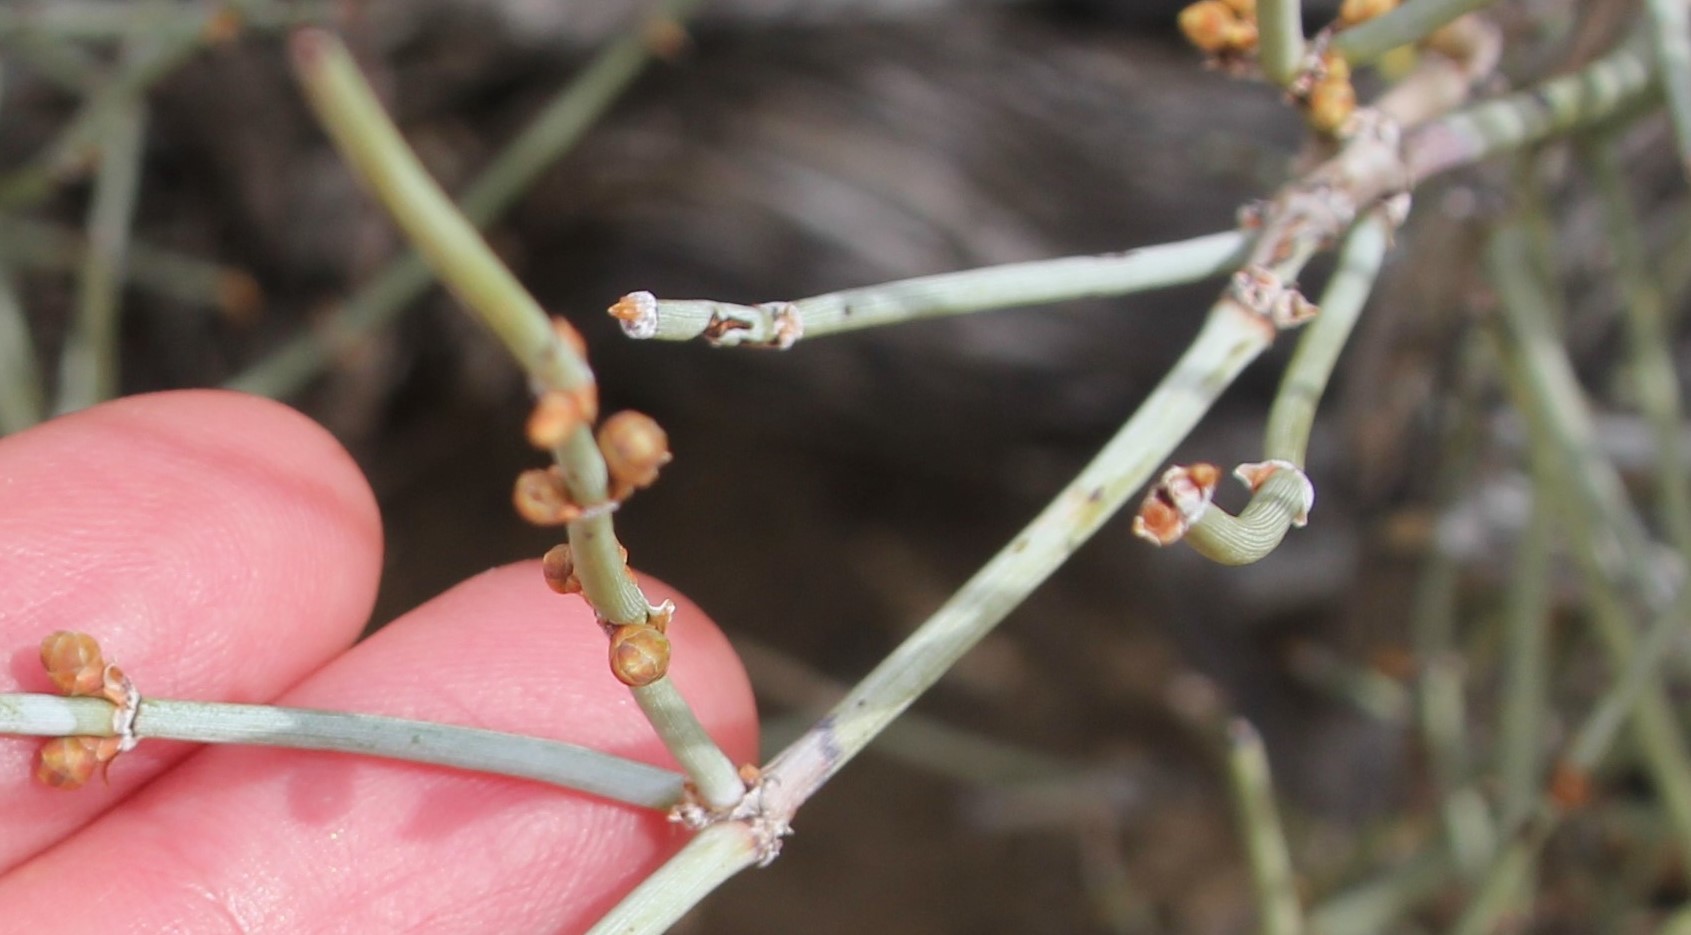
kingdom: Plantae
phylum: Tracheophyta
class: Gnetopsida
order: Ephedrales
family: Ephedraceae
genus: Ephedra
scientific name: Ephedra aspera
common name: Boundary ephedra
